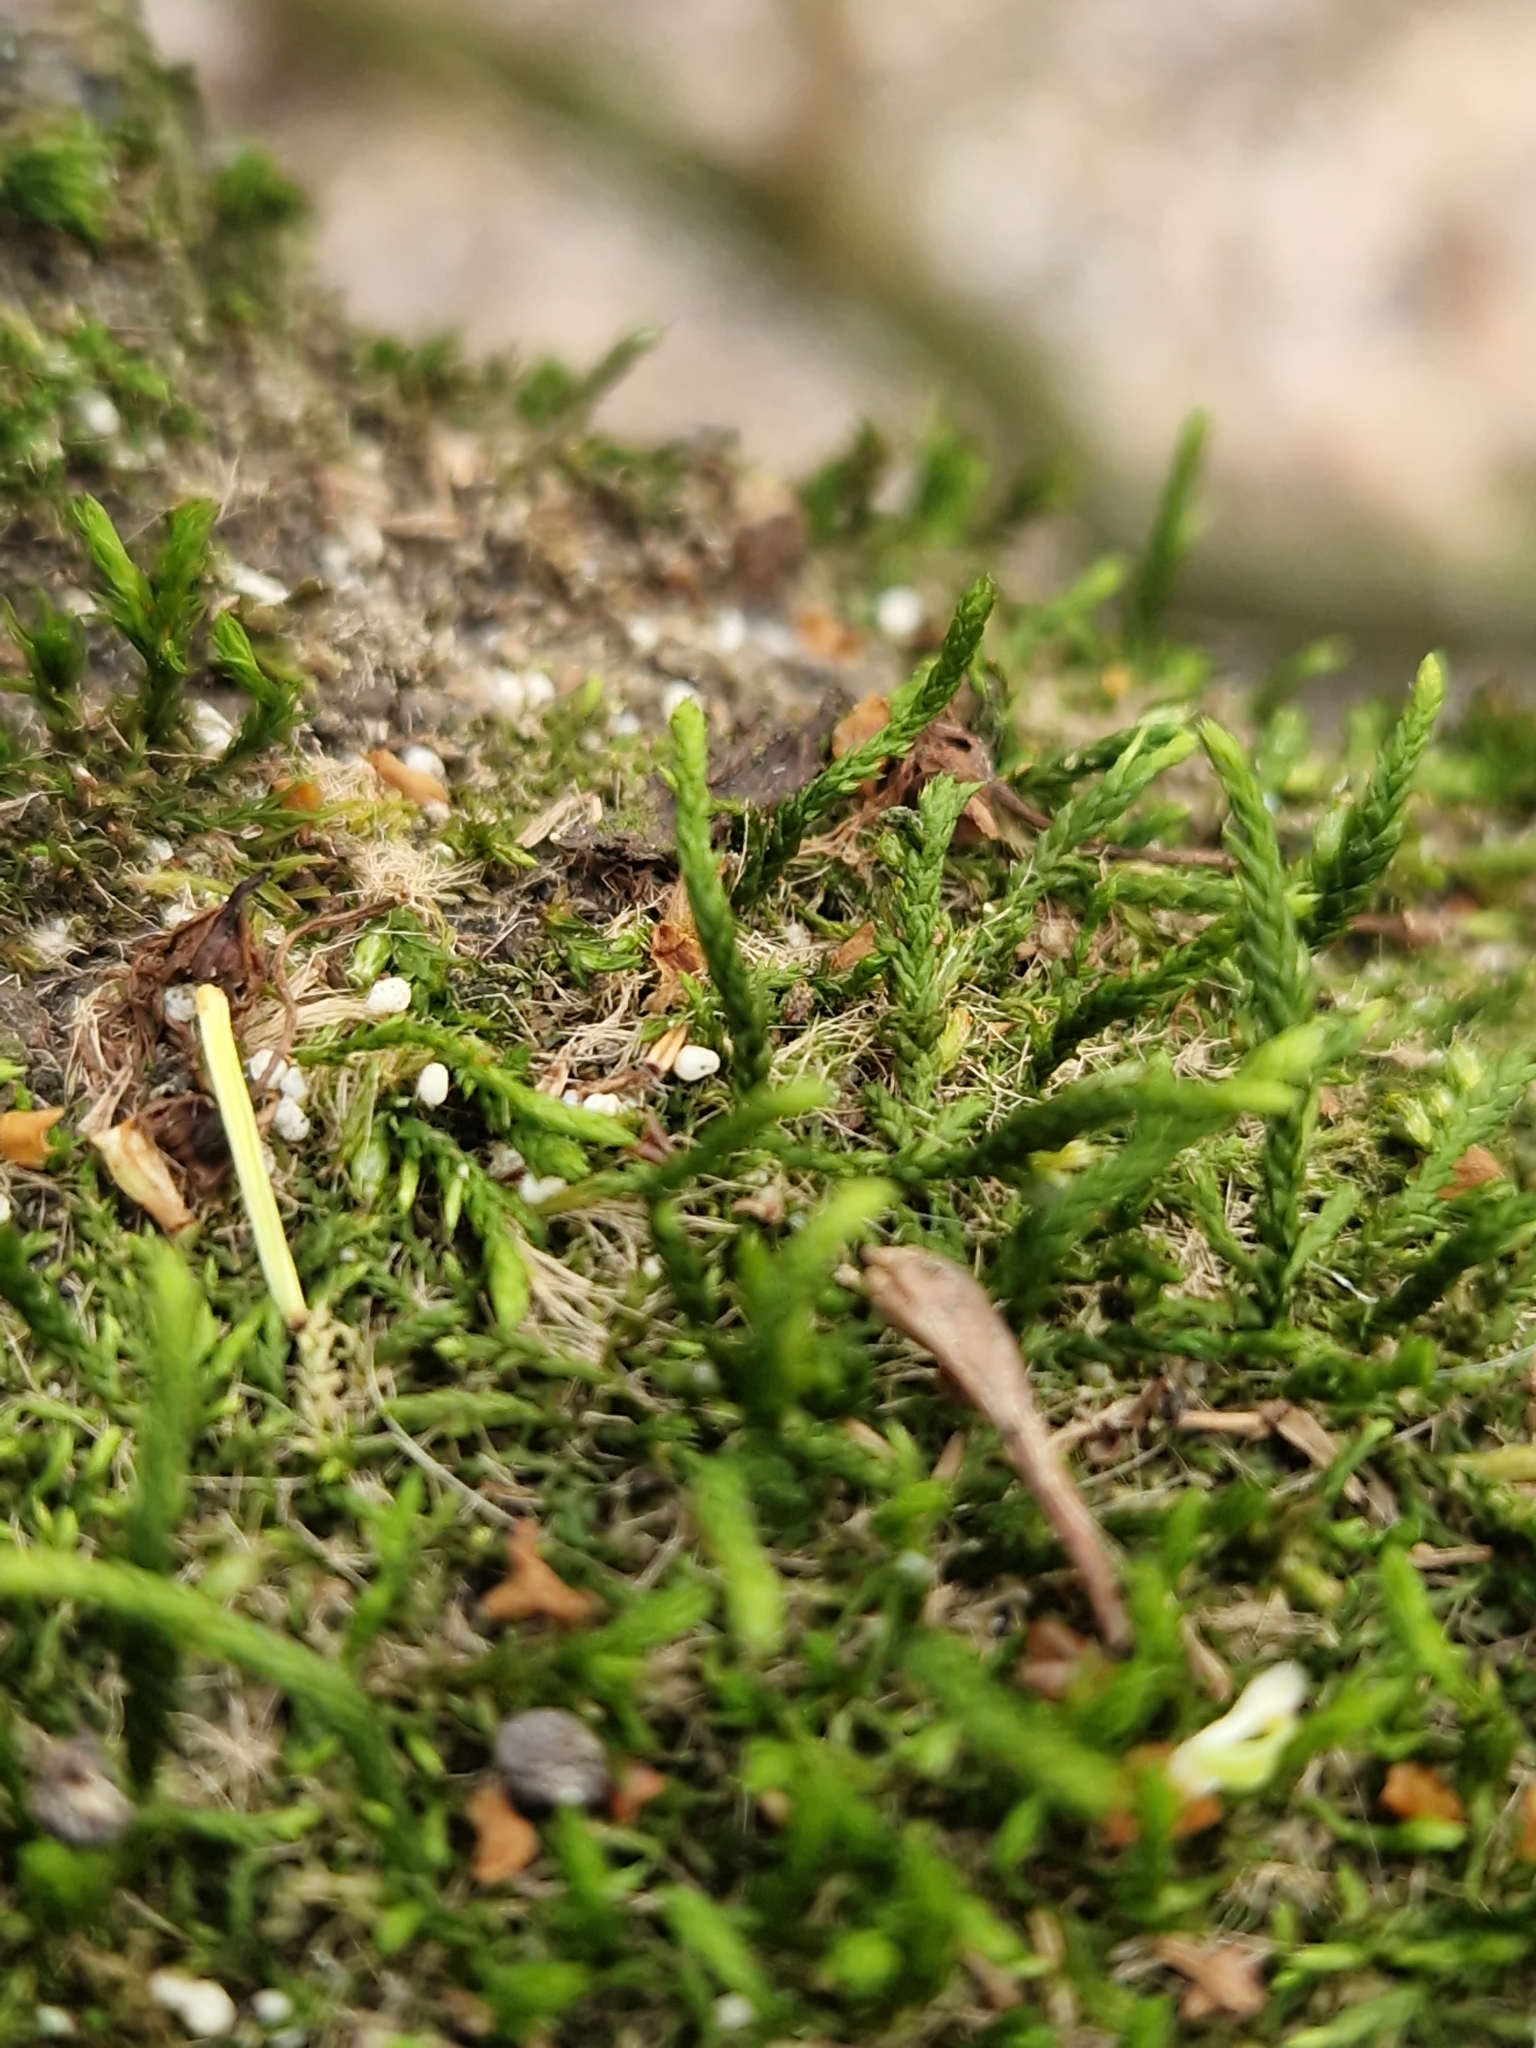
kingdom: Plantae
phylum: Bryophyta
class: Bryopsida
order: Hypnales
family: Cryphaeaceae
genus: Cryphaea
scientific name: Cryphaea heteromalla
